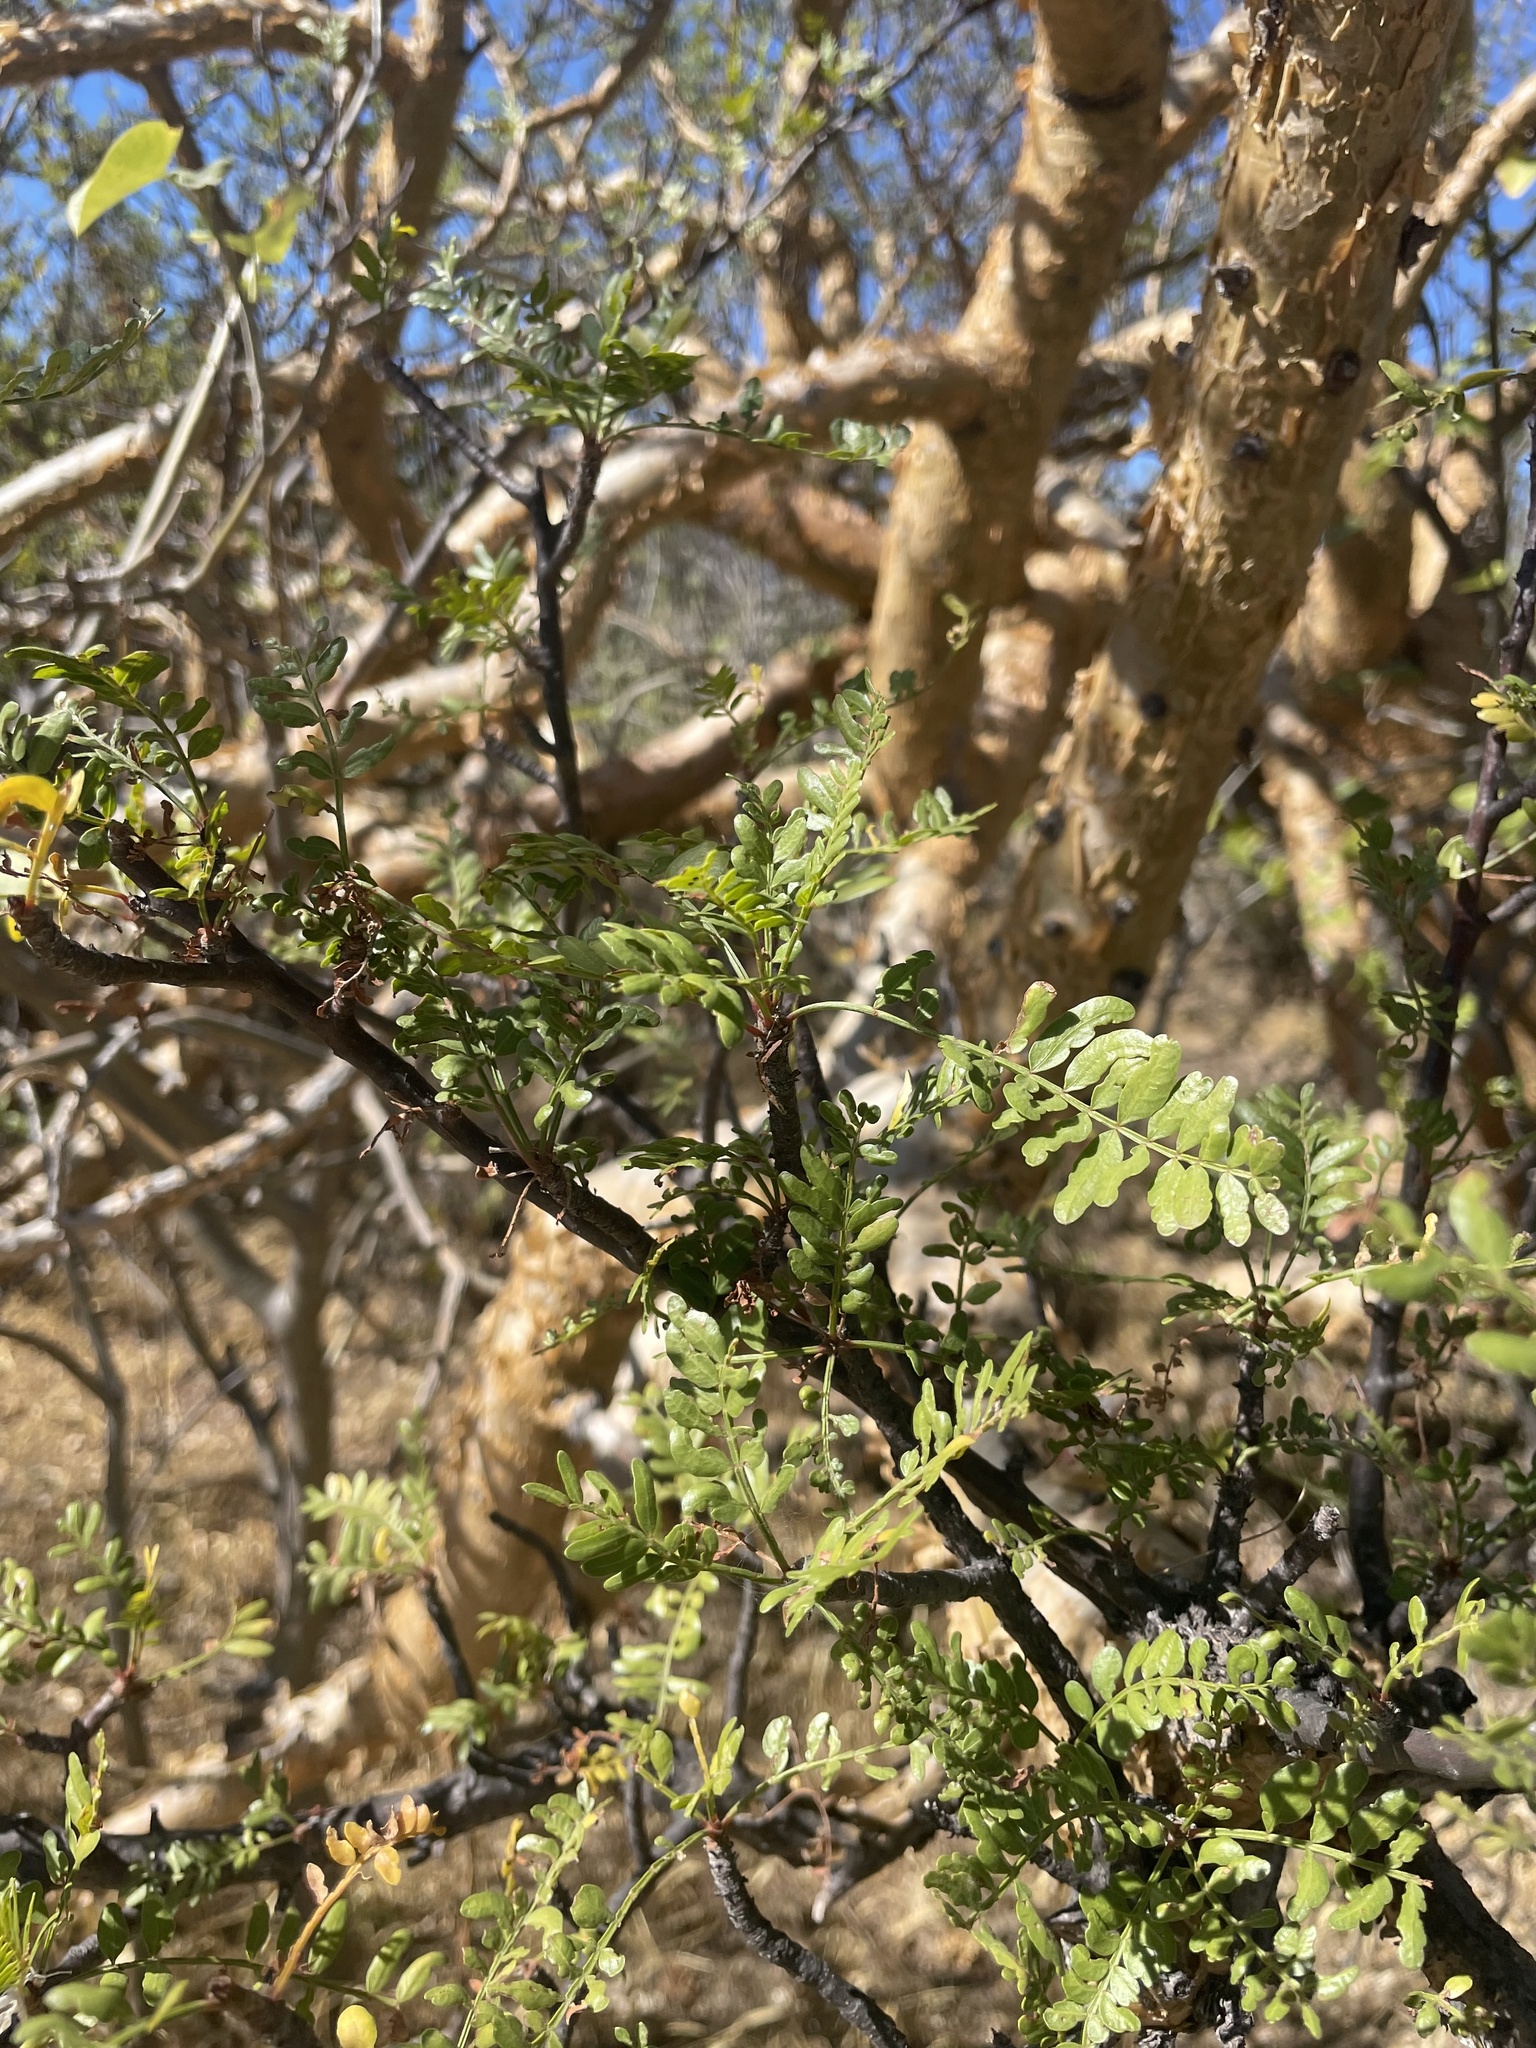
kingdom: Plantae
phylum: Tracheophyta
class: Magnoliopsida
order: Sapindales
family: Burseraceae
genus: Bursera
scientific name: Bursera microphylla
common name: Elephant tree
